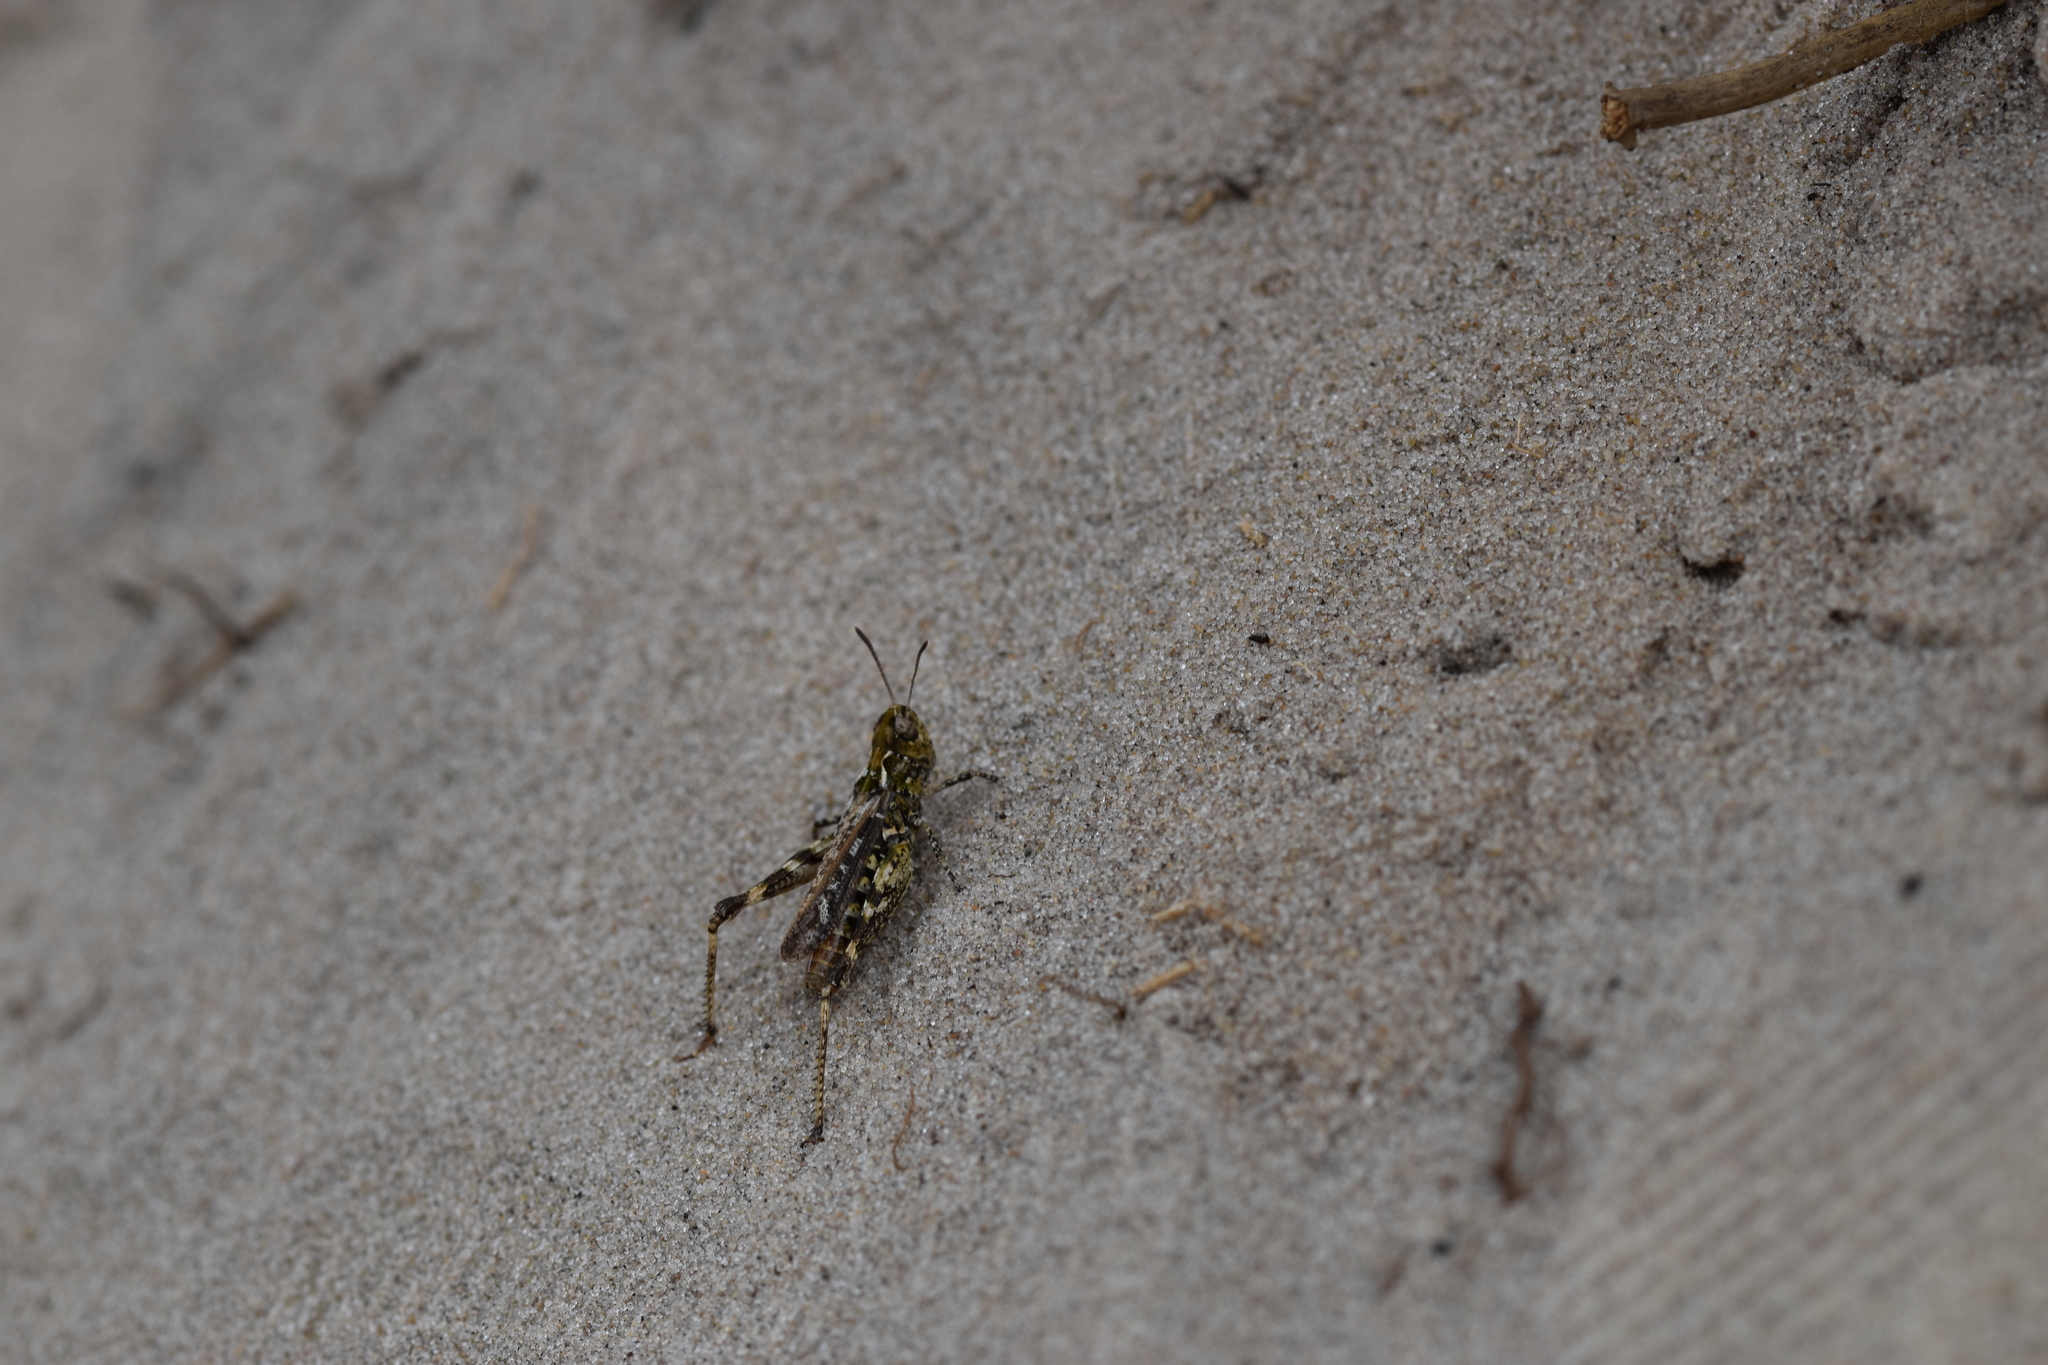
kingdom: Animalia
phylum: Arthropoda
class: Insecta
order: Orthoptera
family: Acrididae
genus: Myrmeleotettix
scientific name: Myrmeleotettix maculatus
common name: Mottled grasshopper
